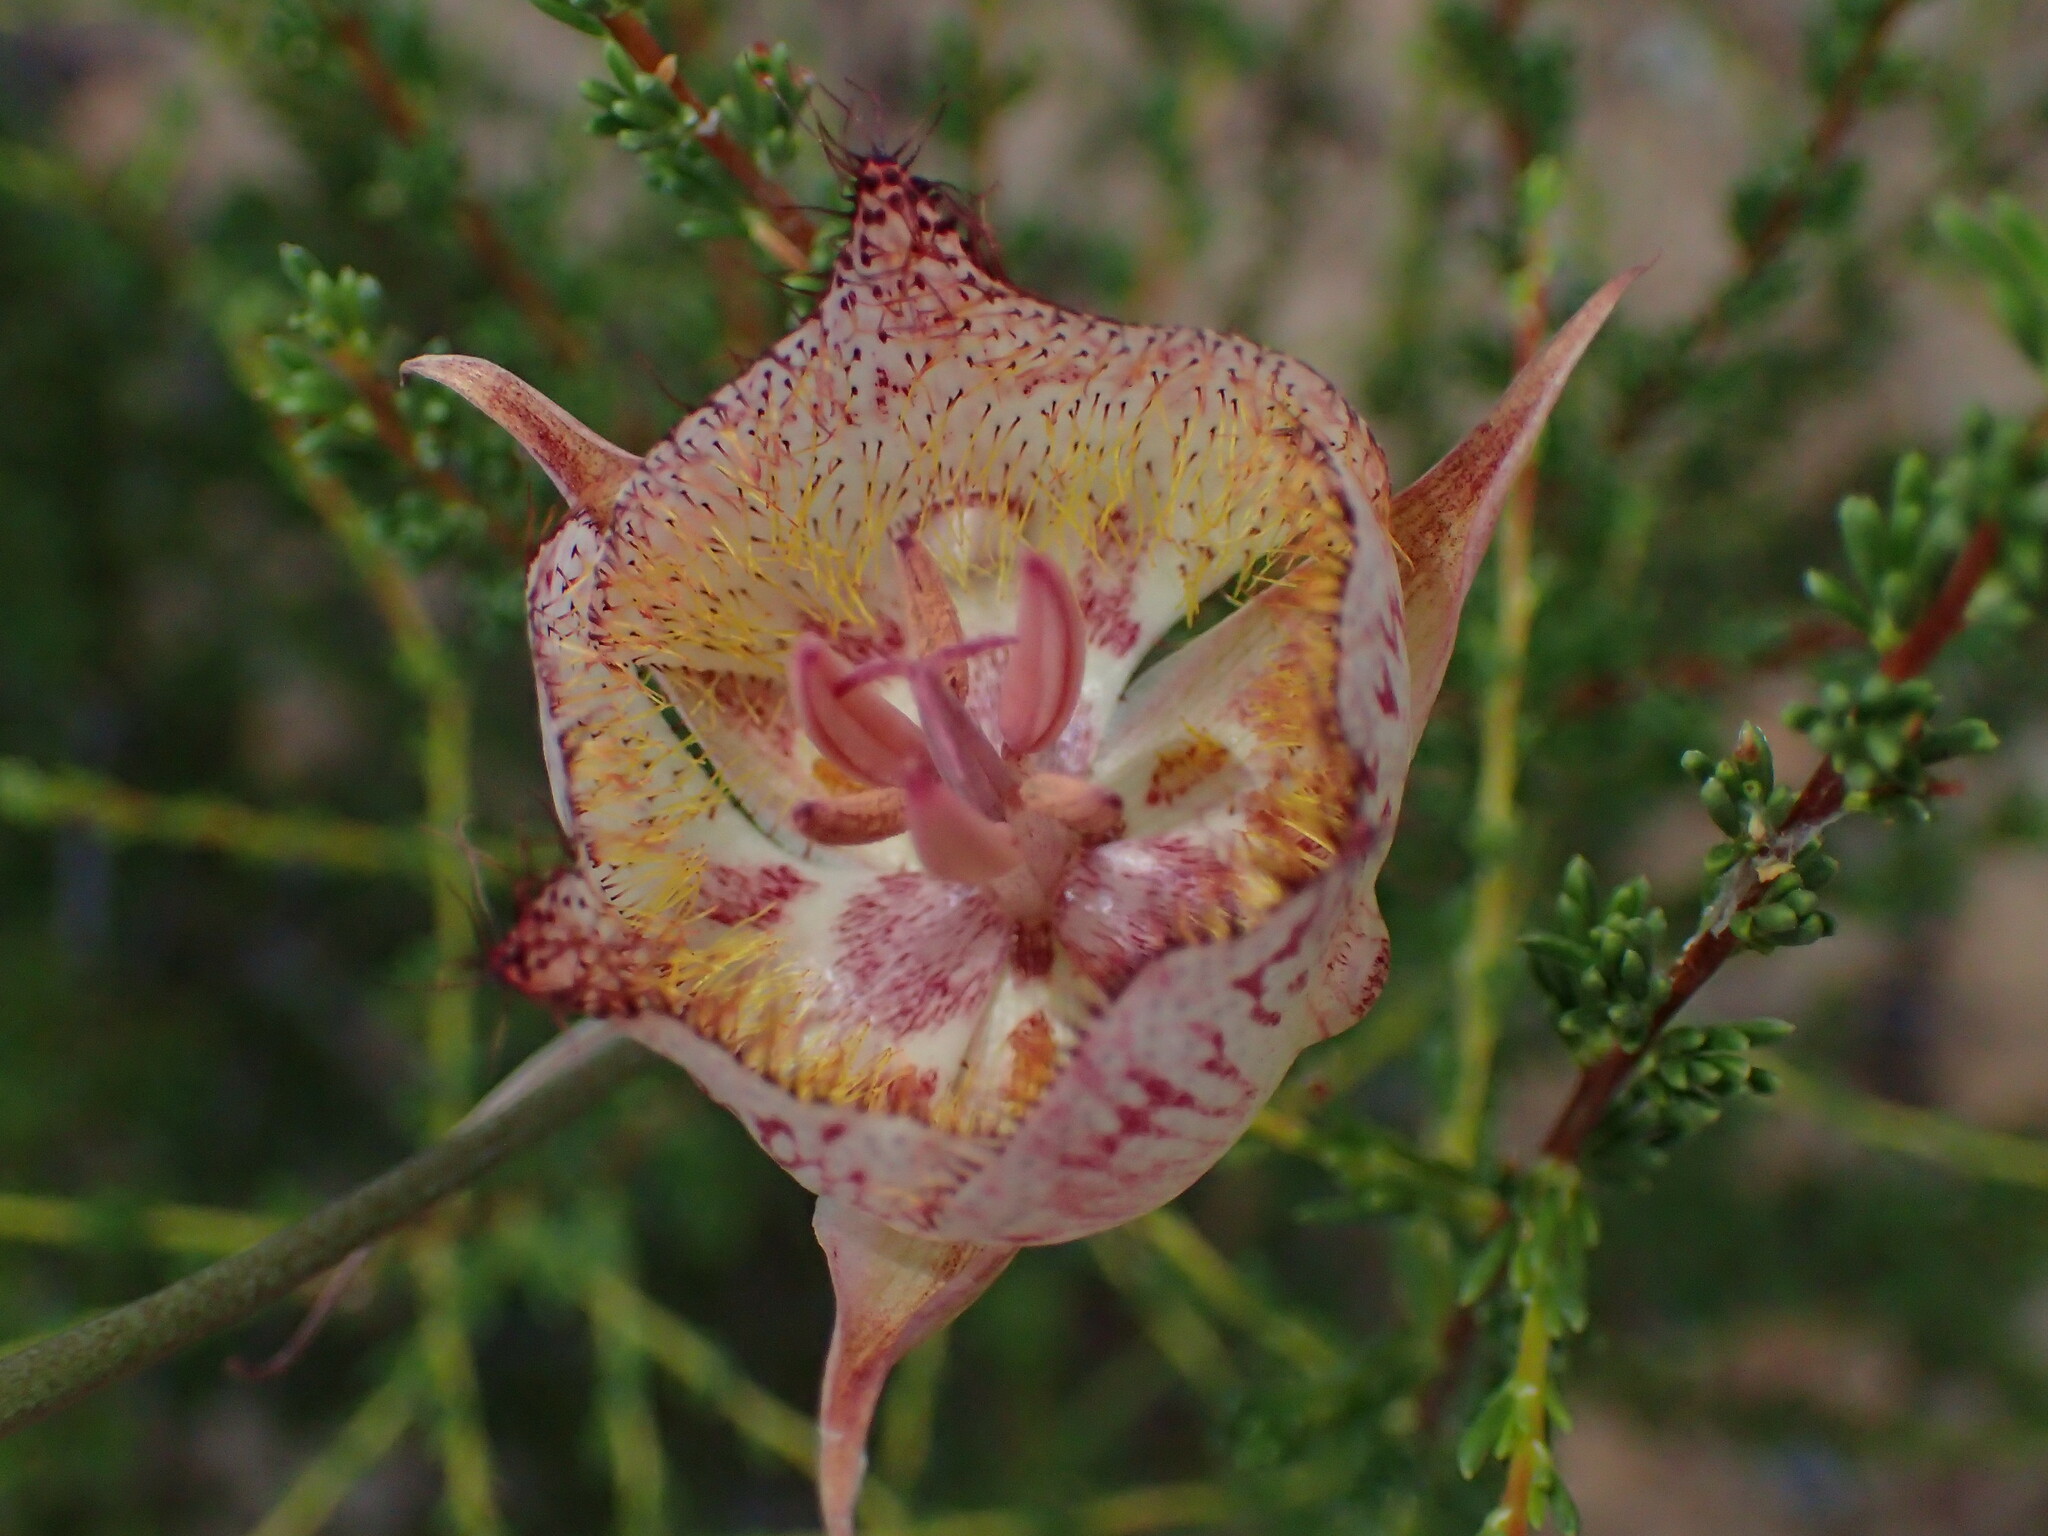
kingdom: Plantae
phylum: Tracheophyta
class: Liliopsida
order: Liliales
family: Liliaceae
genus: Calochortus
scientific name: Calochortus fimbriatus
